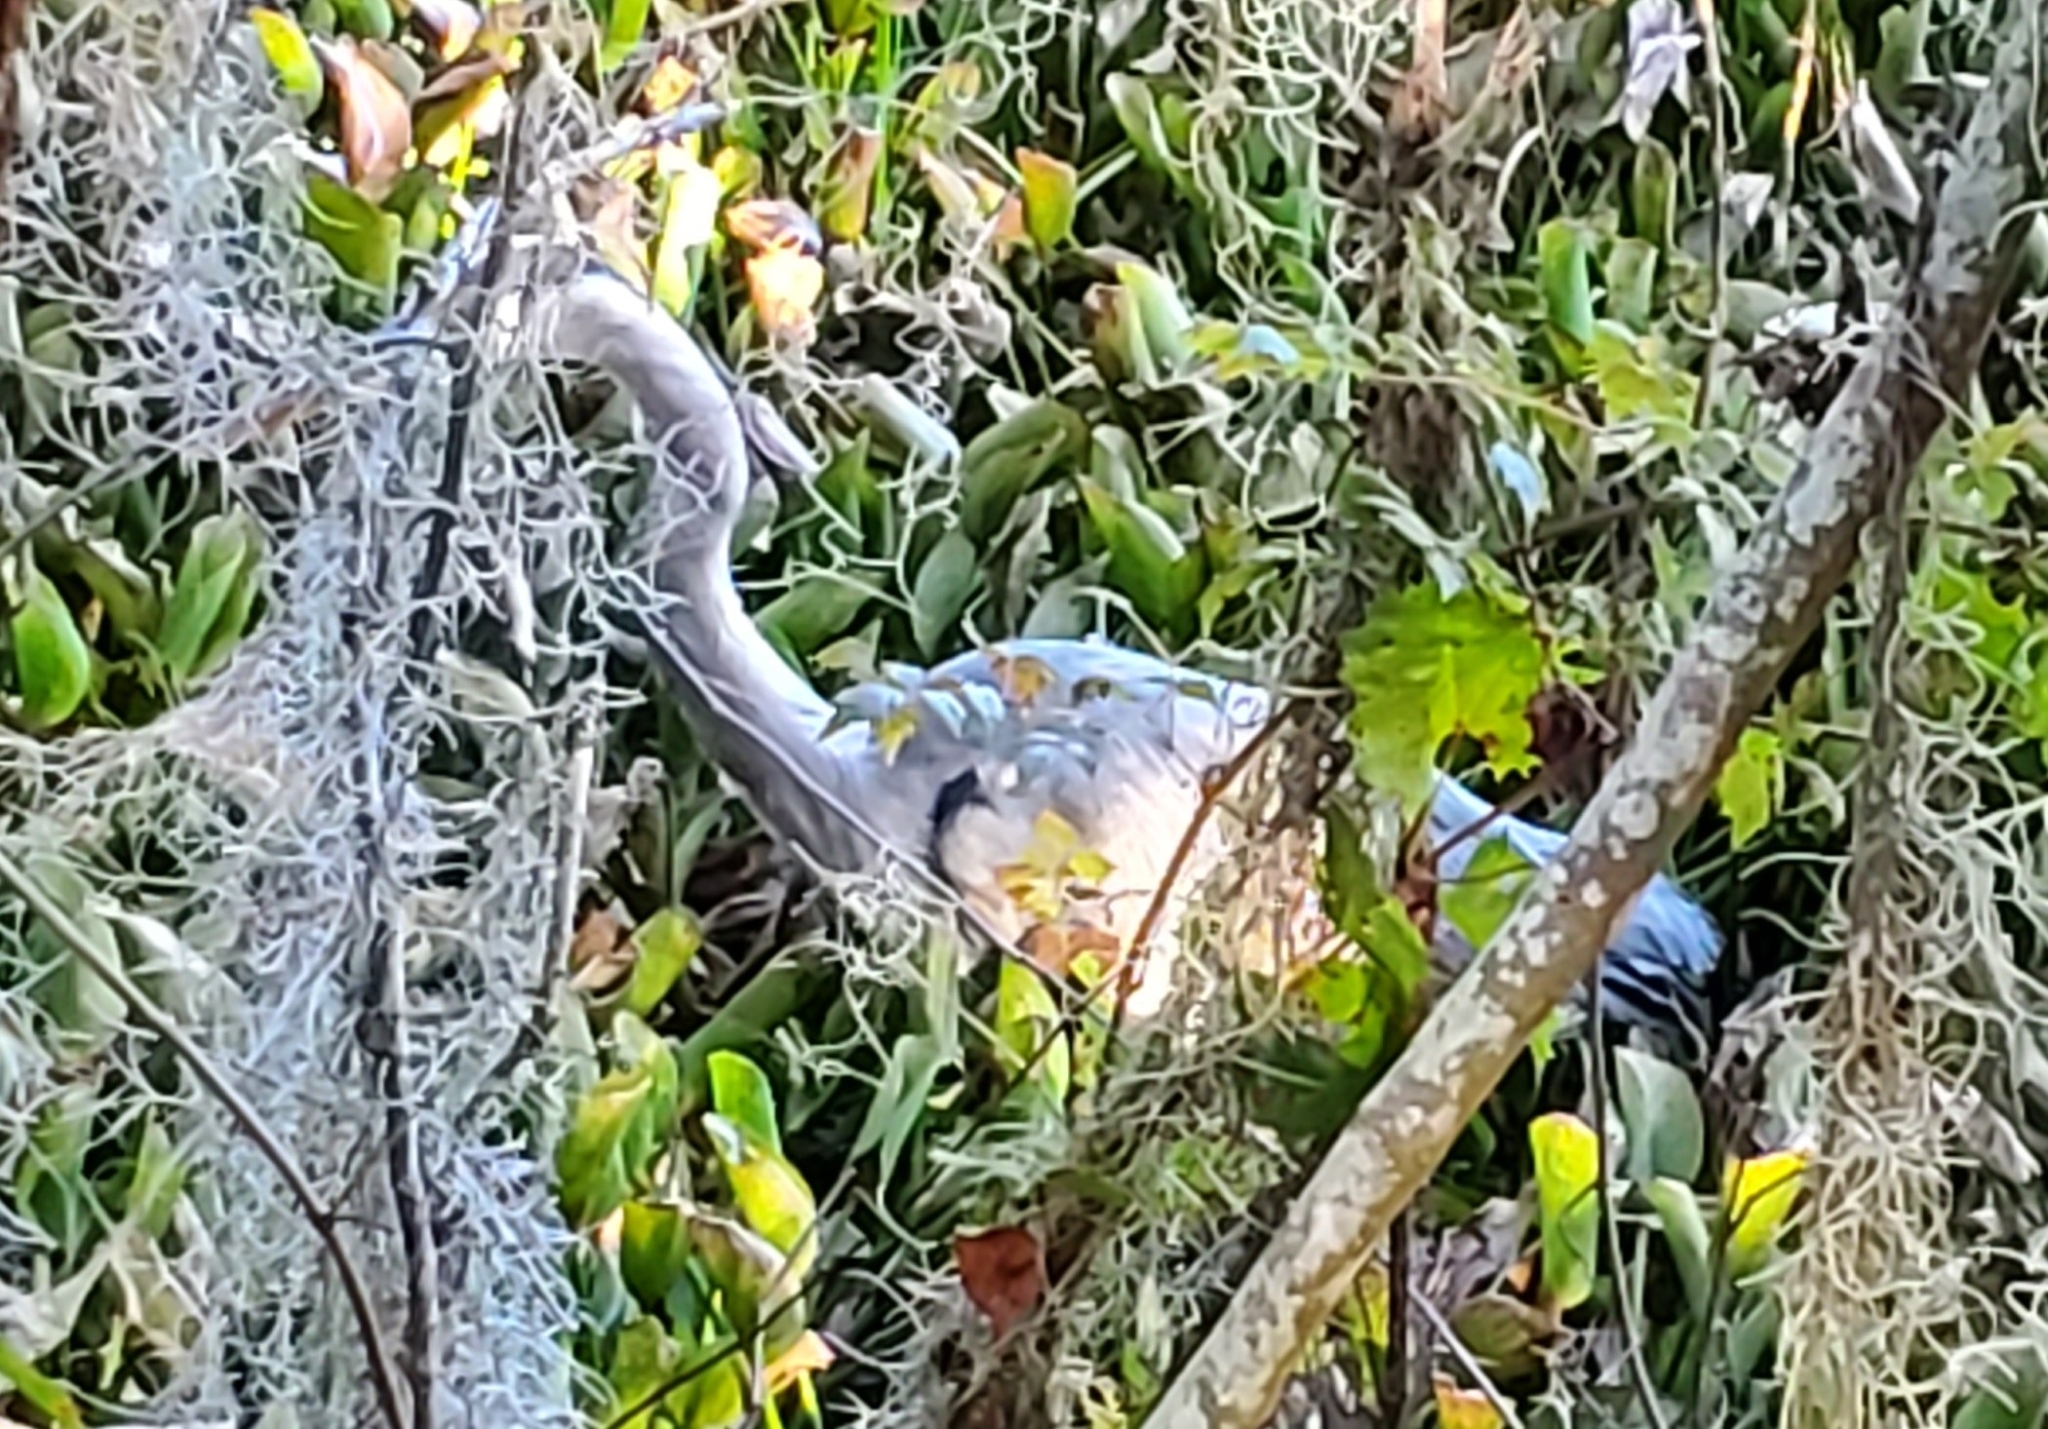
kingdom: Animalia
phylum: Chordata
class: Aves
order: Pelecaniformes
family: Ardeidae
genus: Ardea
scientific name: Ardea herodias
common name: Great blue heron
